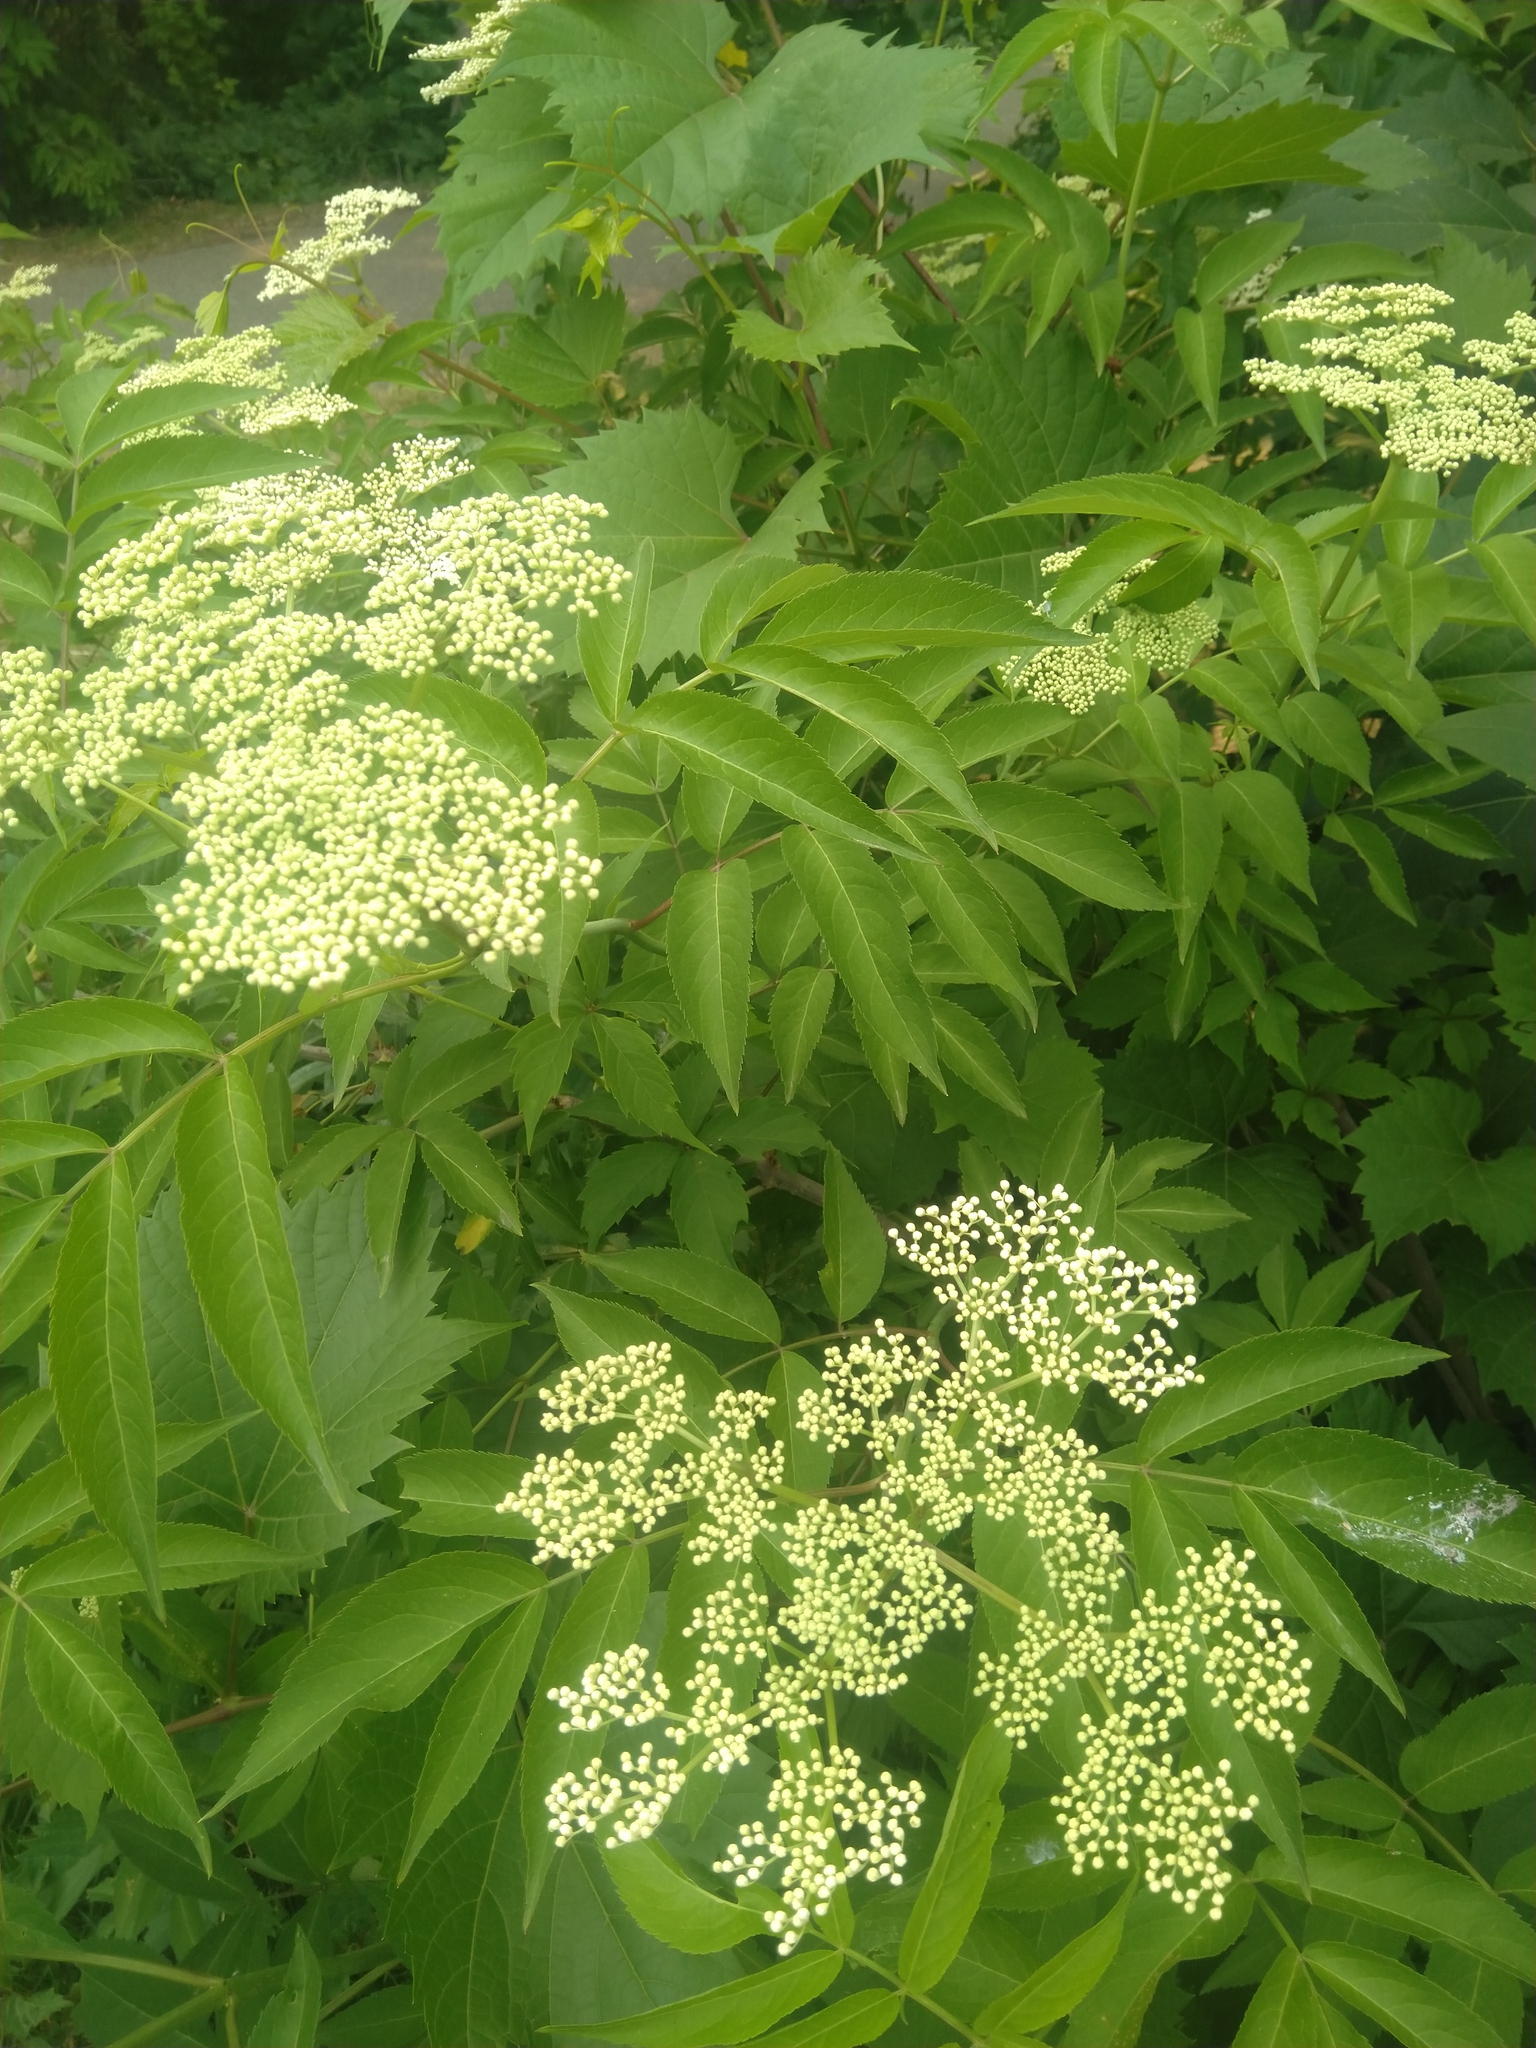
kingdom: Plantae
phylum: Tracheophyta
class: Magnoliopsida
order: Dipsacales
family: Viburnaceae
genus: Sambucus
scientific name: Sambucus canadensis
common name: American elder
